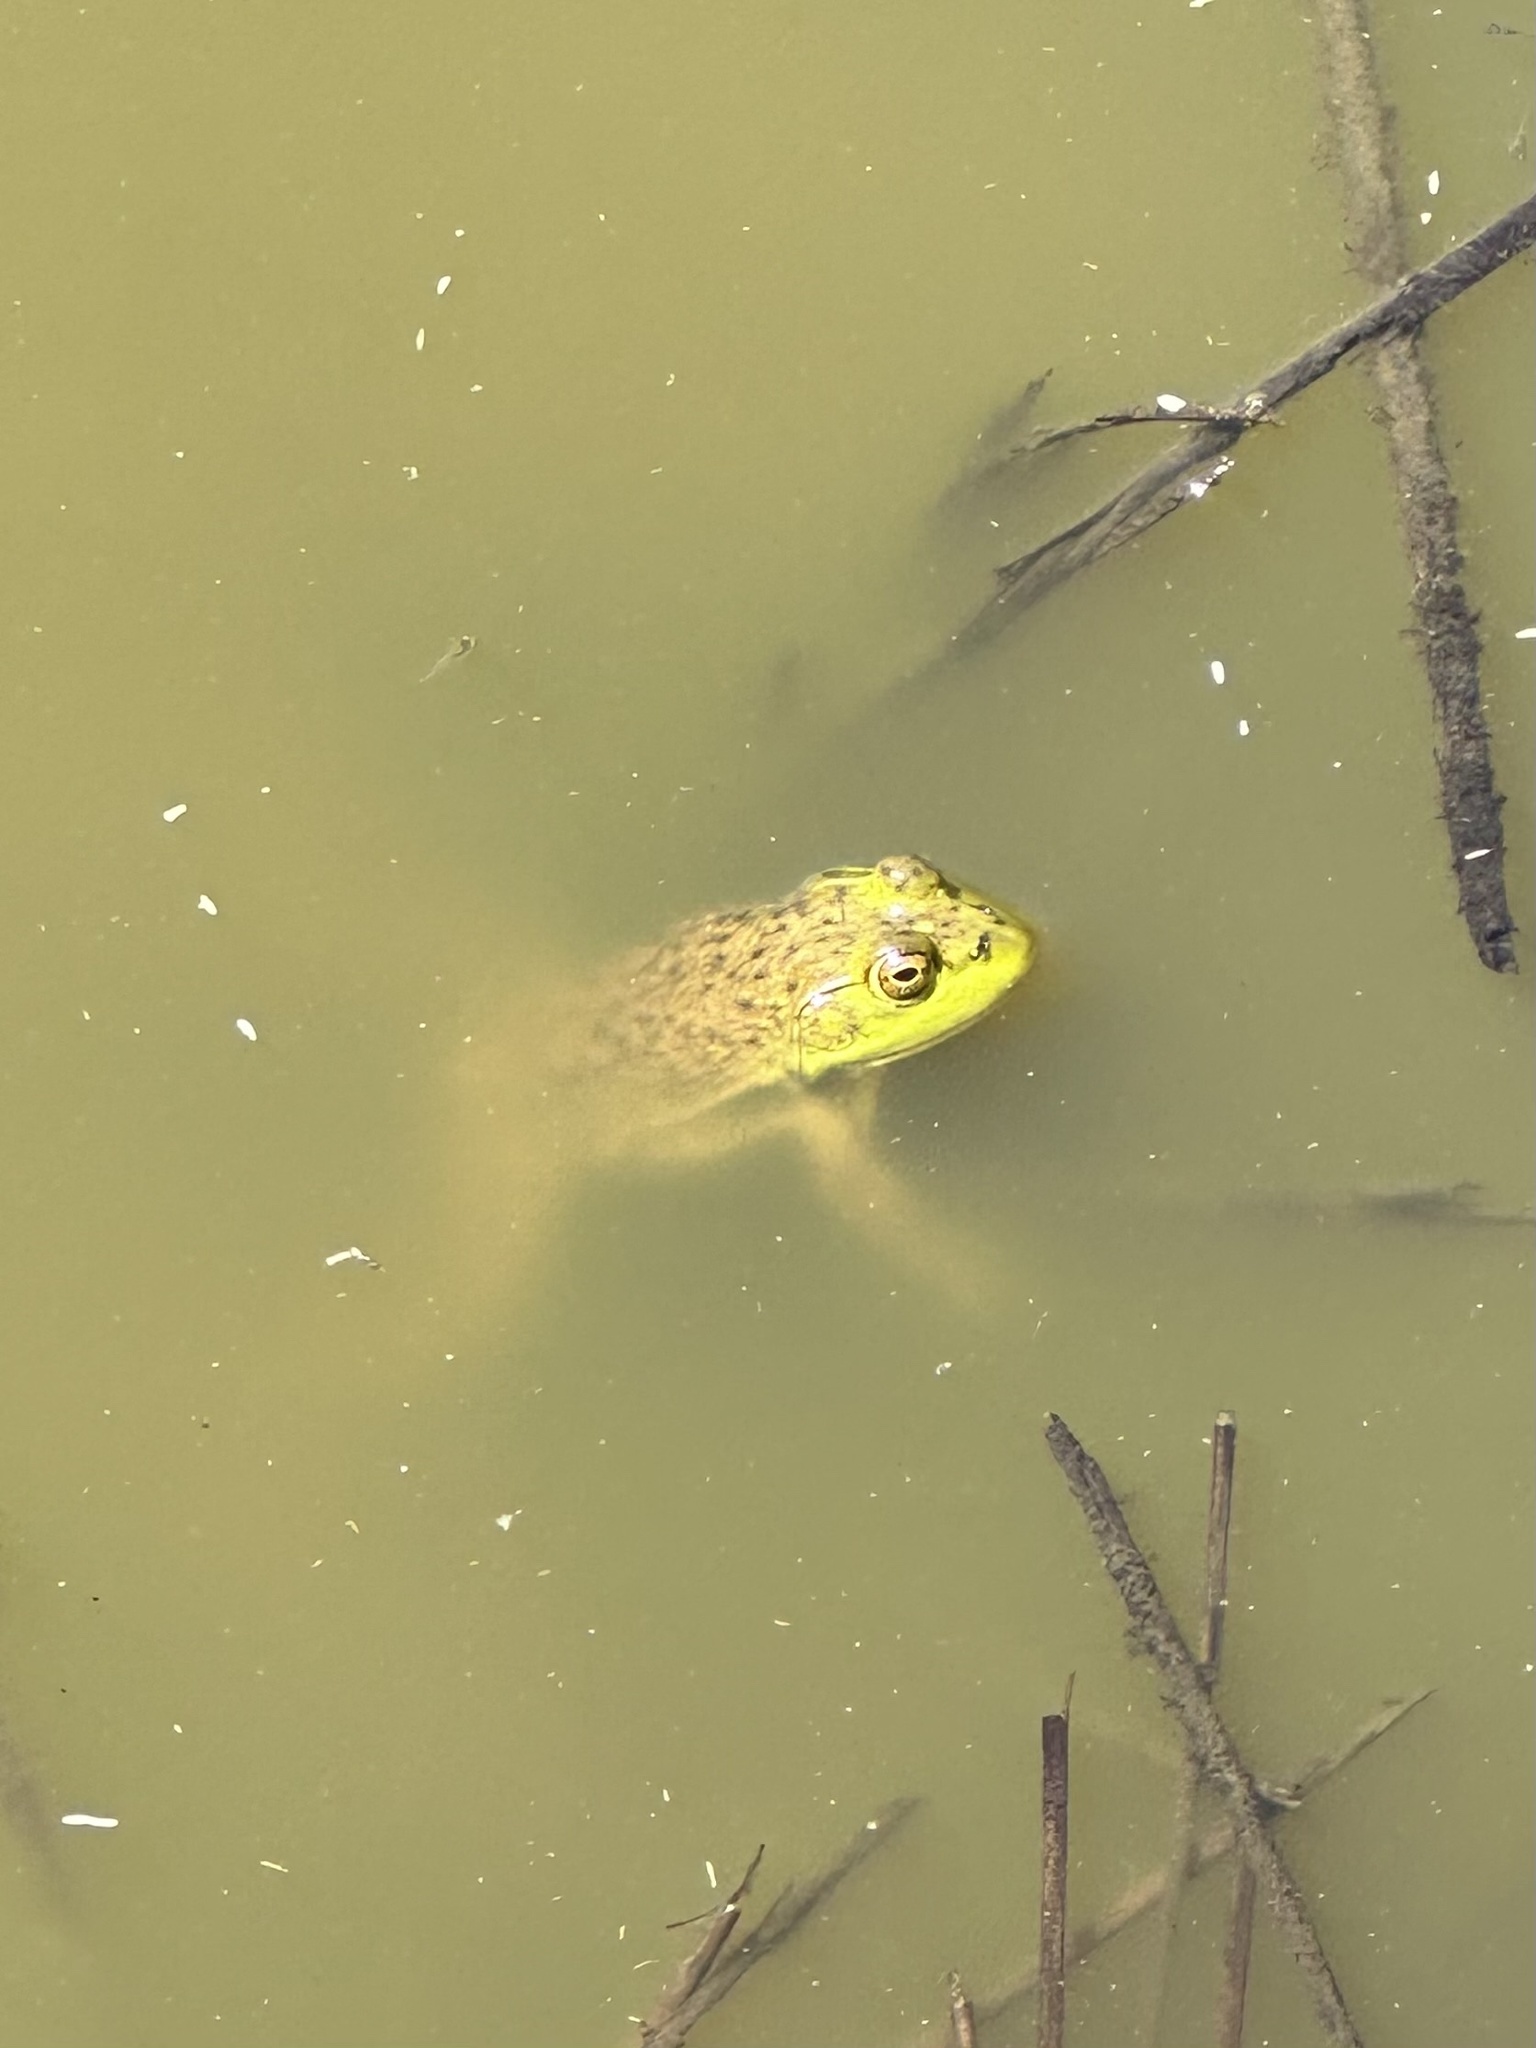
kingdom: Animalia
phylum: Chordata
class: Amphibia
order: Anura
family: Ranidae
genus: Lithobates
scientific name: Lithobates catesbeianus
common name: American bullfrog
